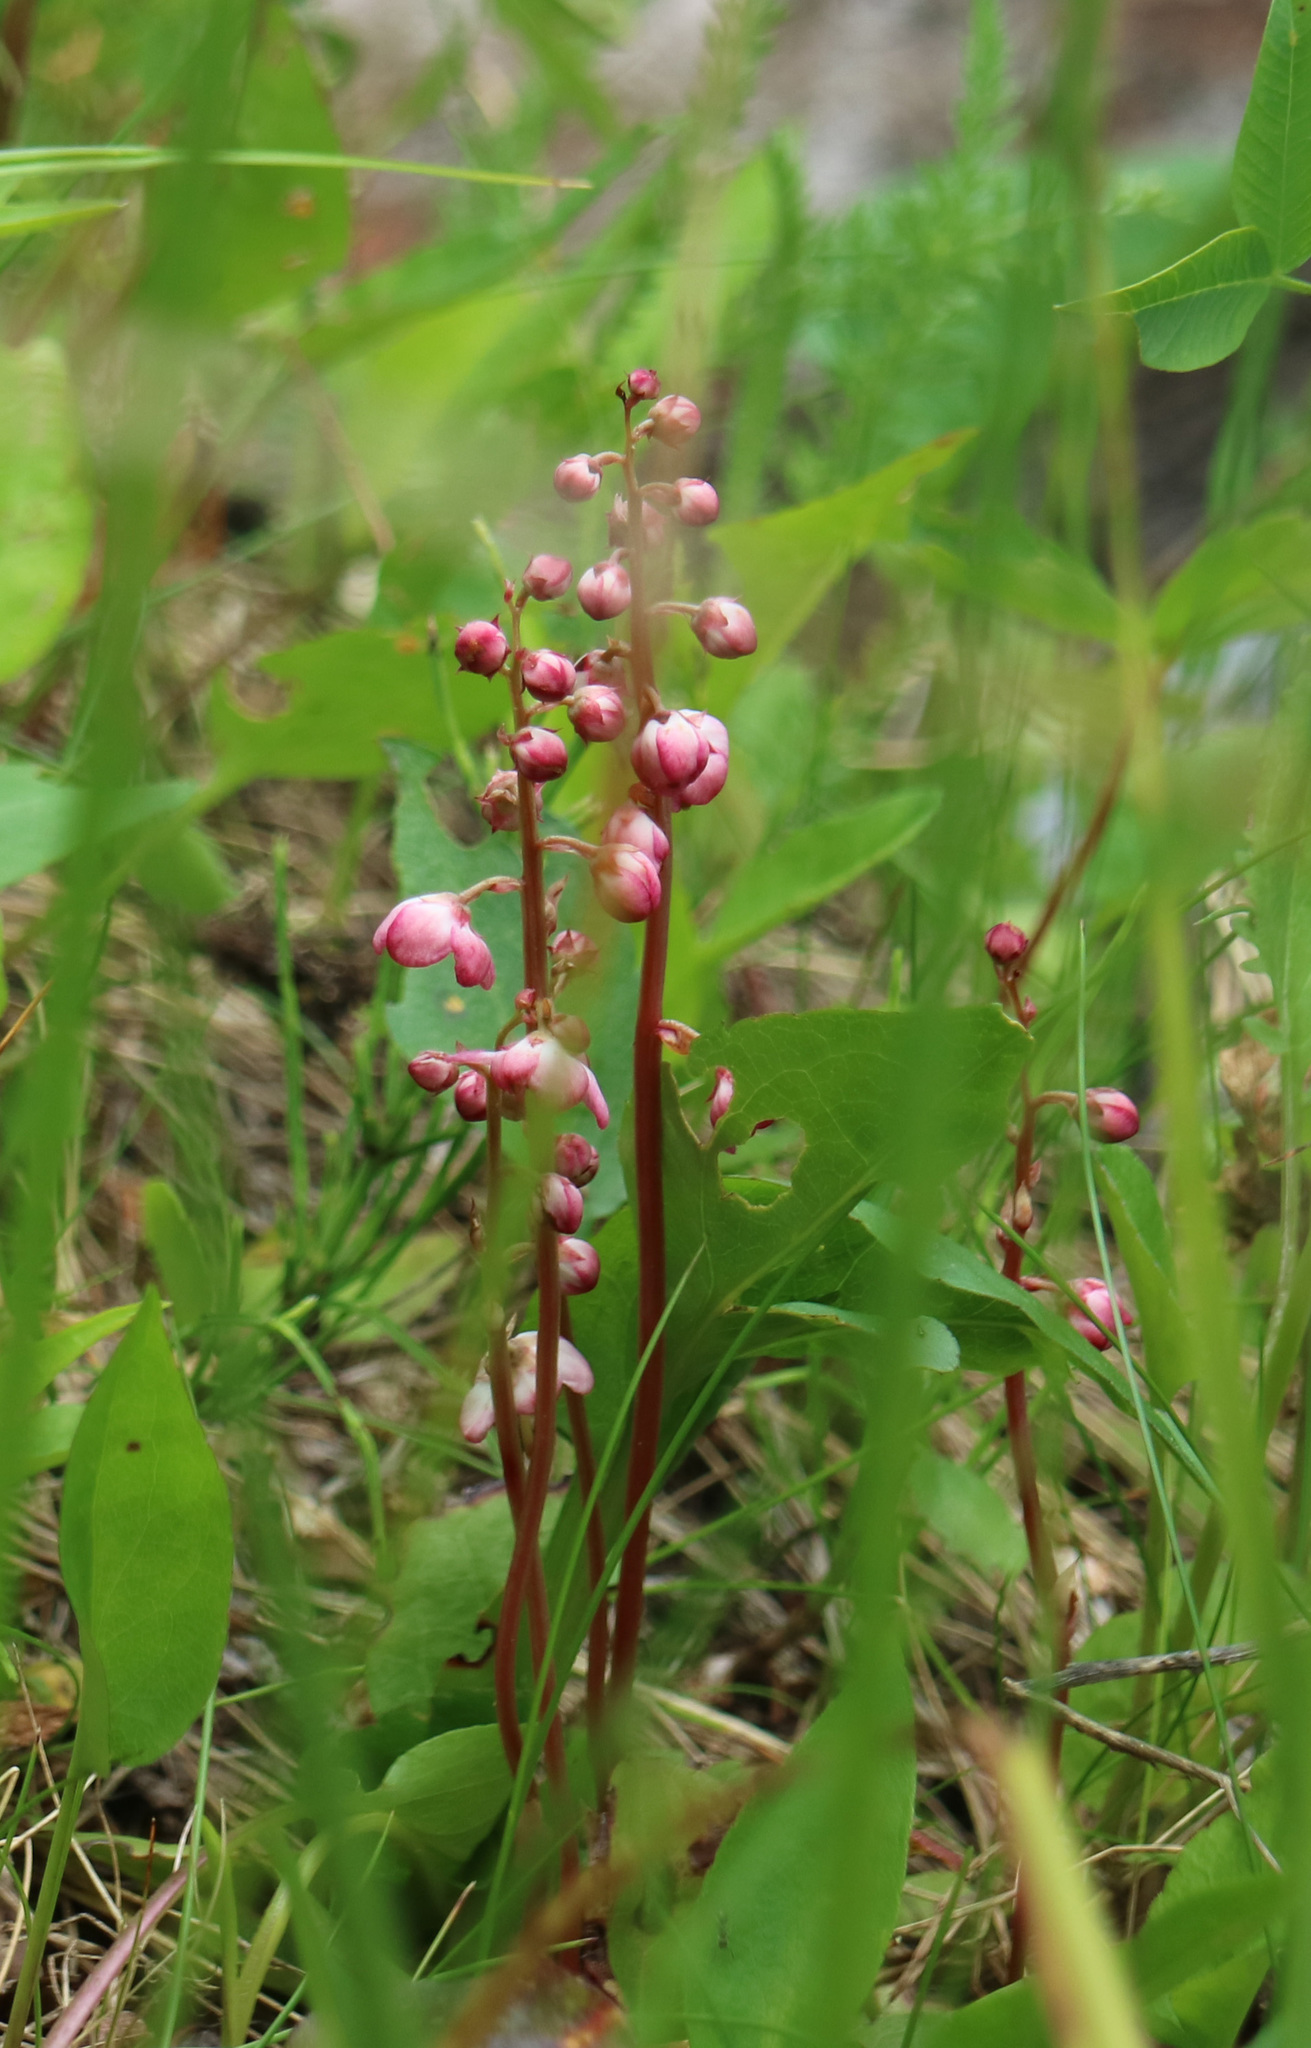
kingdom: Plantae
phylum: Tracheophyta
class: Magnoliopsida
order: Ericales
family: Ericaceae
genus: Pyrola
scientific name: Pyrola asarifolia
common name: Bog wintergreen
